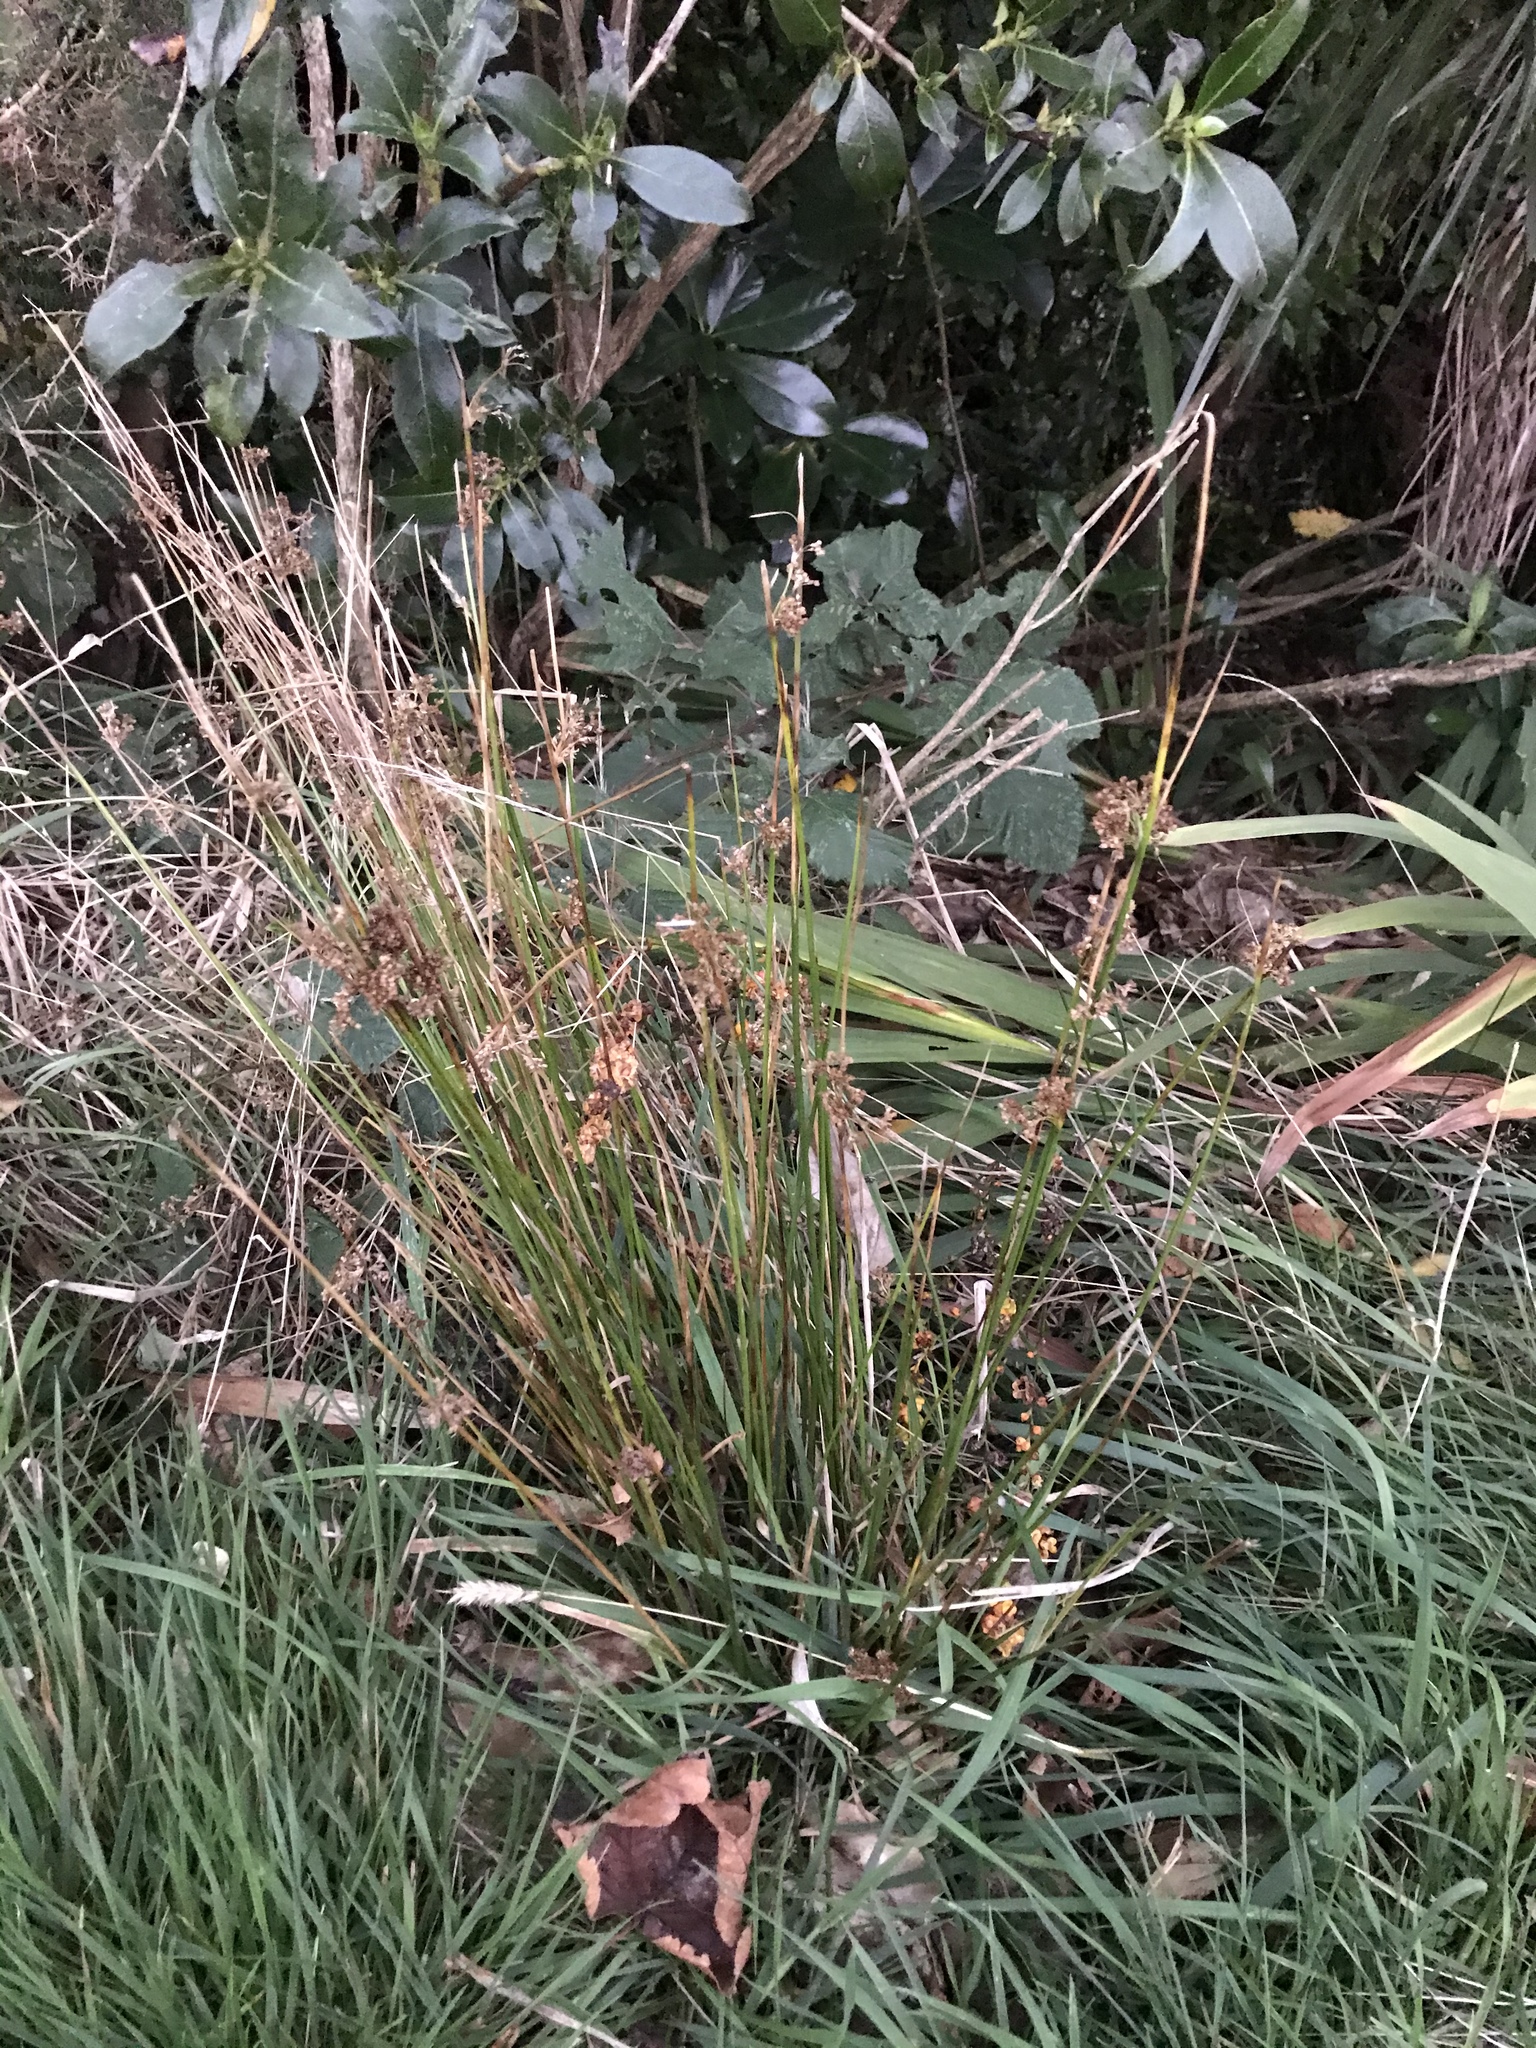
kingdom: Plantae
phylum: Tracheophyta
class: Liliopsida
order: Poales
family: Juncaceae
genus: Juncus
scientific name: Juncus effusus
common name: Soft rush
